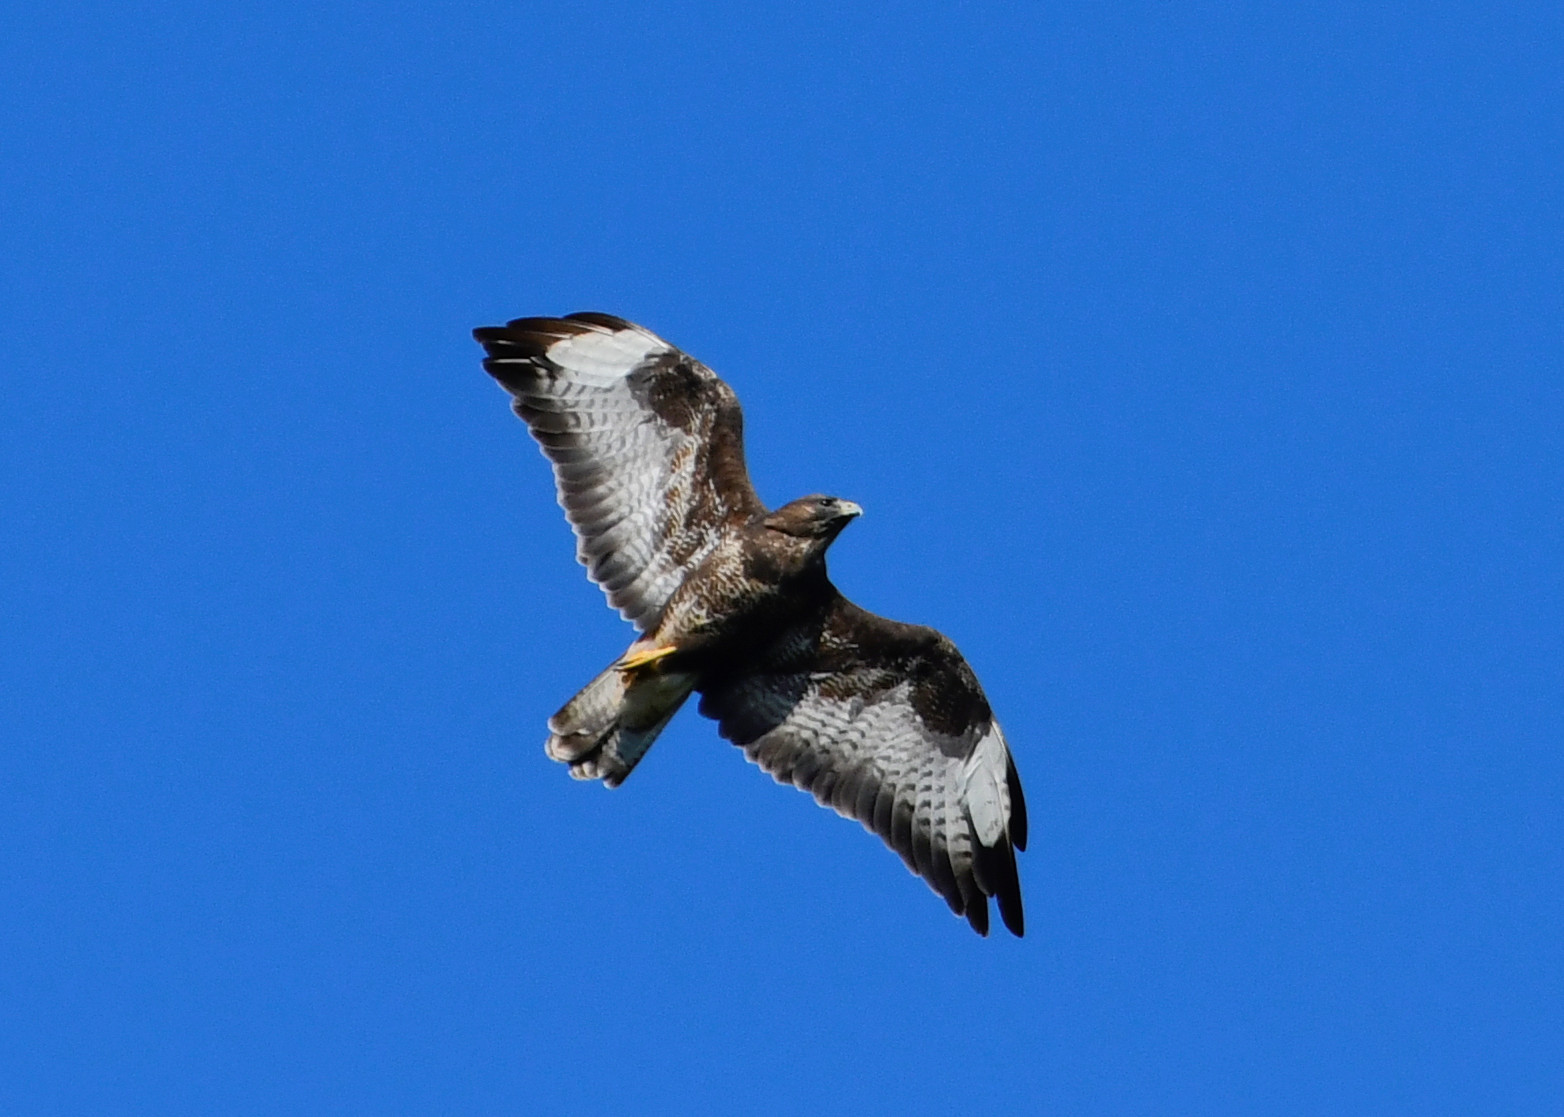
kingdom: Animalia
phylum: Chordata
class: Aves
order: Accipitriformes
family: Accipitridae
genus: Buteo
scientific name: Buteo buteo
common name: Common buzzard
